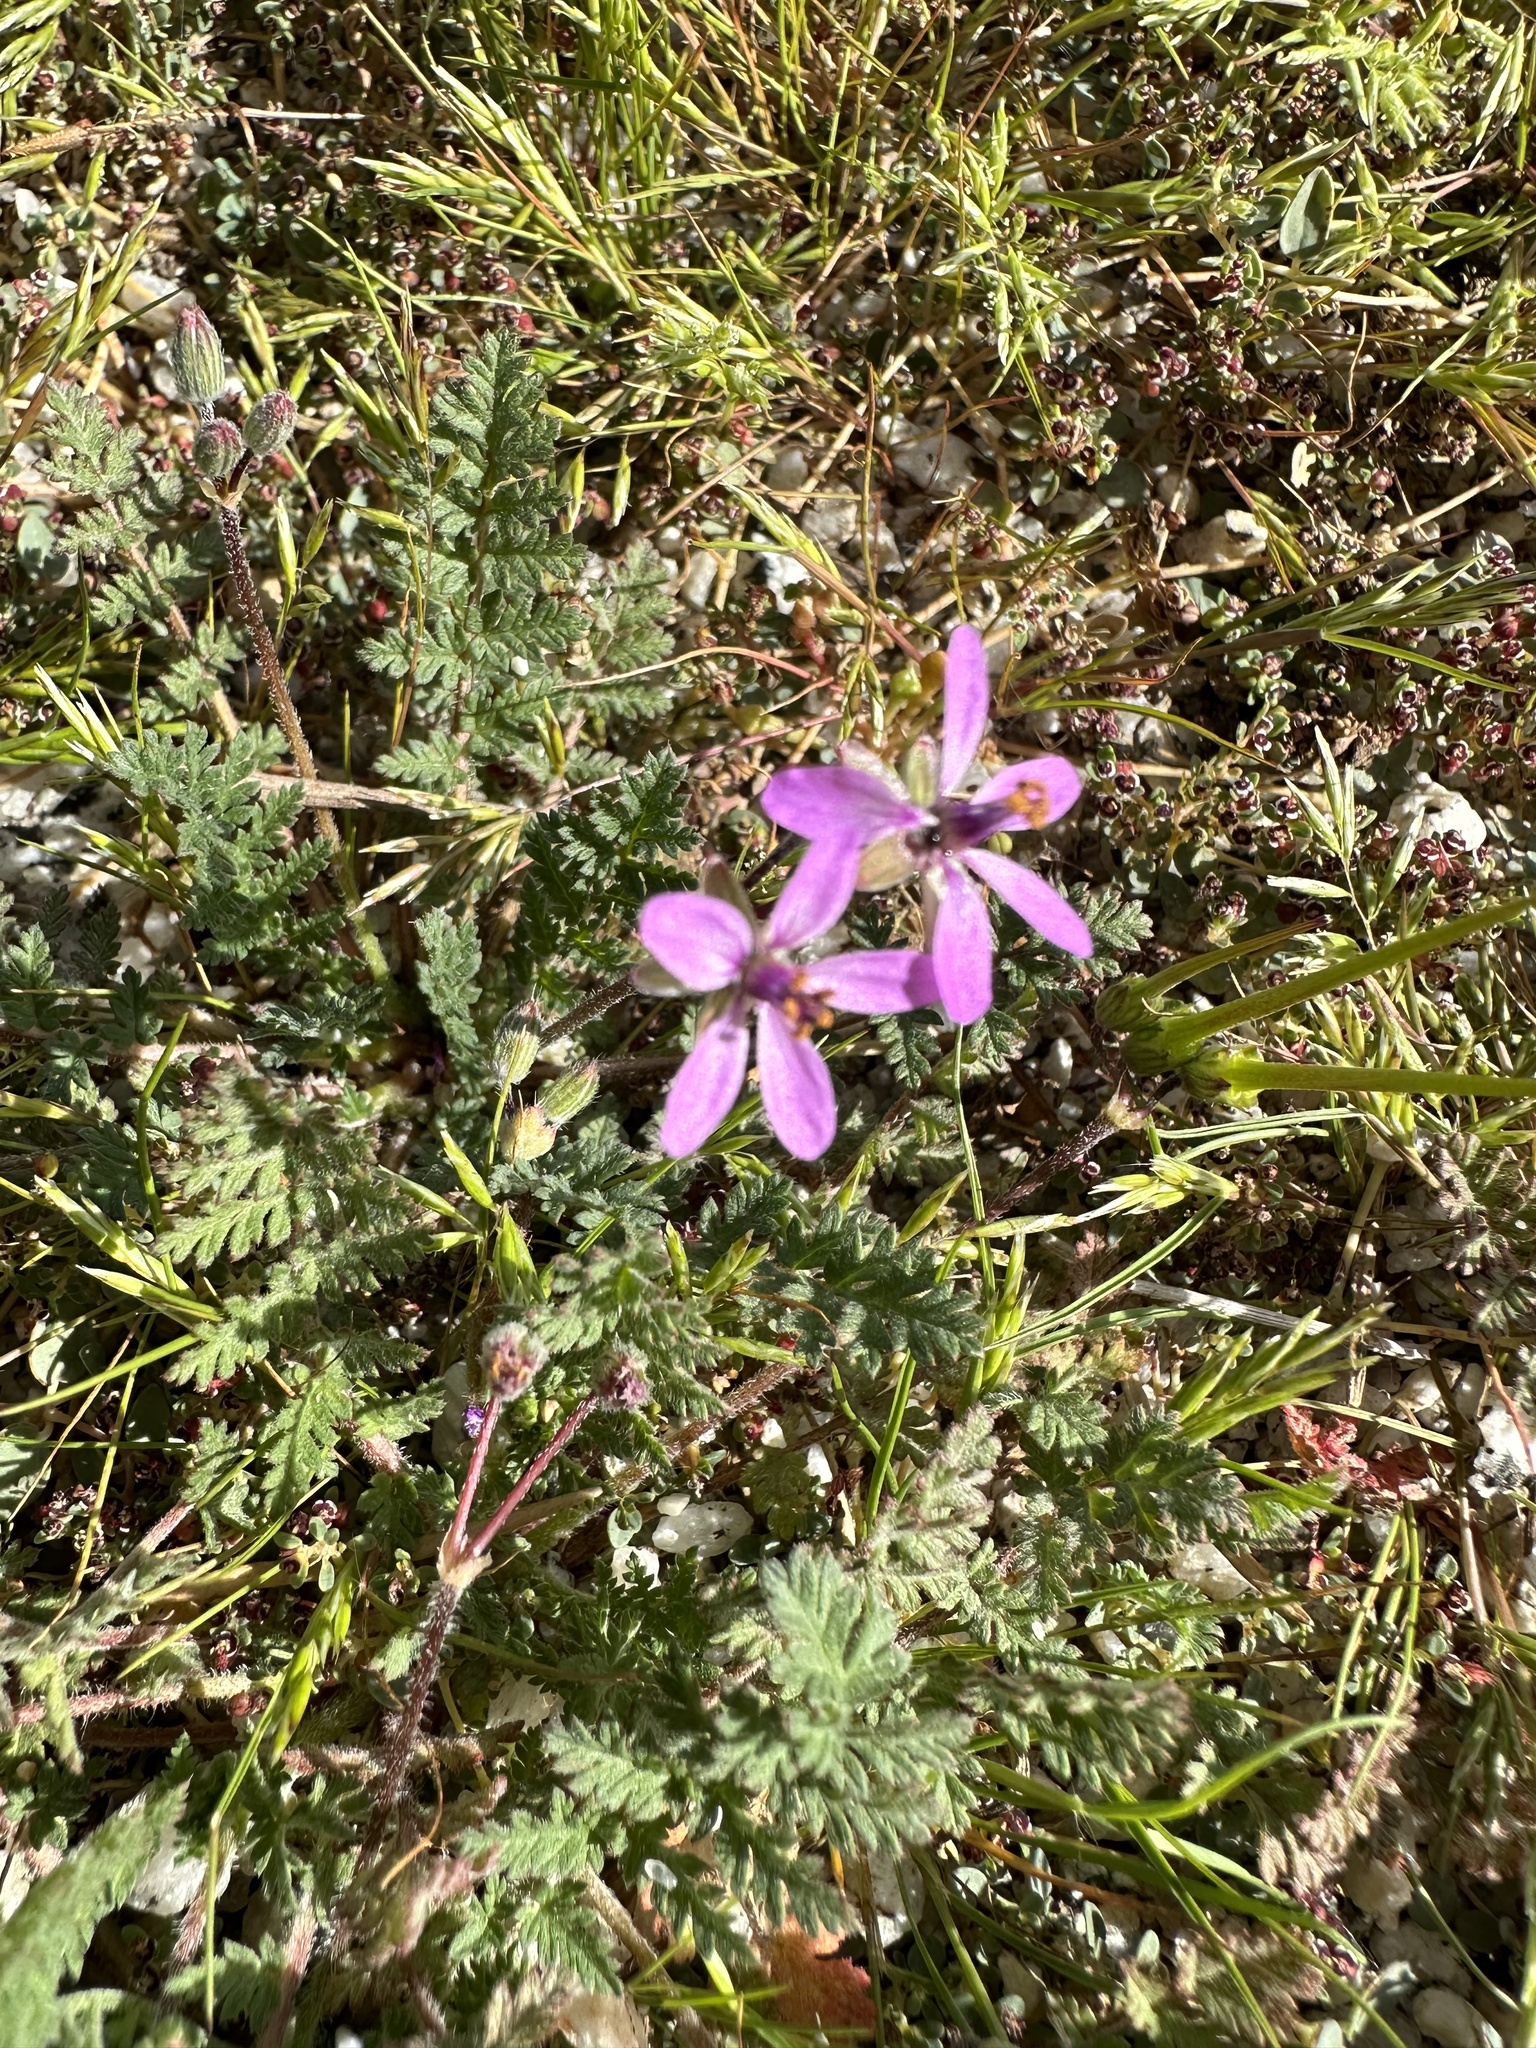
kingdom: Plantae
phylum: Tracheophyta
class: Magnoliopsida
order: Geraniales
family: Geraniaceae
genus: Erodium
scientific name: Erodium cicutarium
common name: Common stork's-bill
